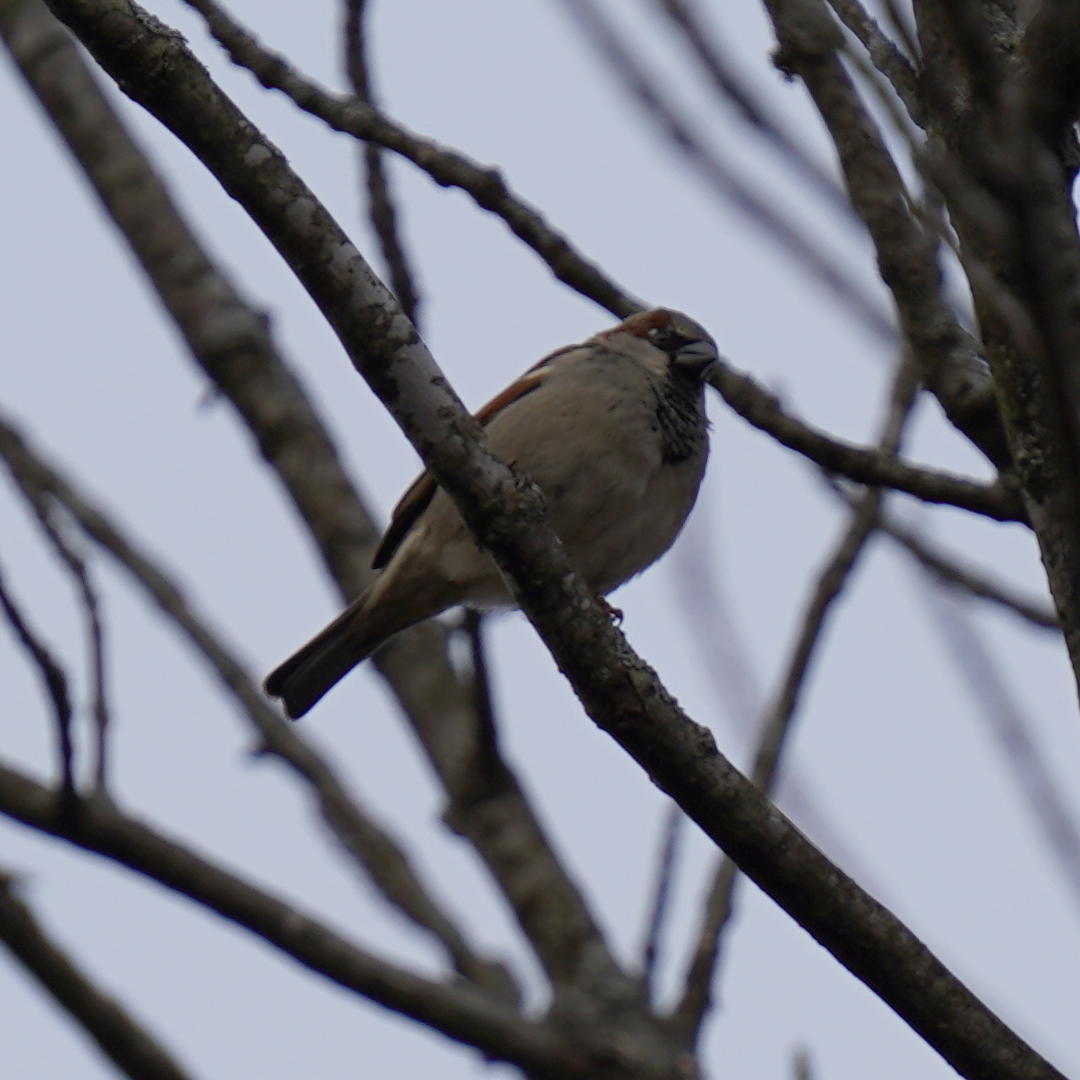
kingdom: Animalia
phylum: Chordata
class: Aves
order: Passeriformes
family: Passeridae
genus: Passer
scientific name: Passer domesticus
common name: House sparrow
